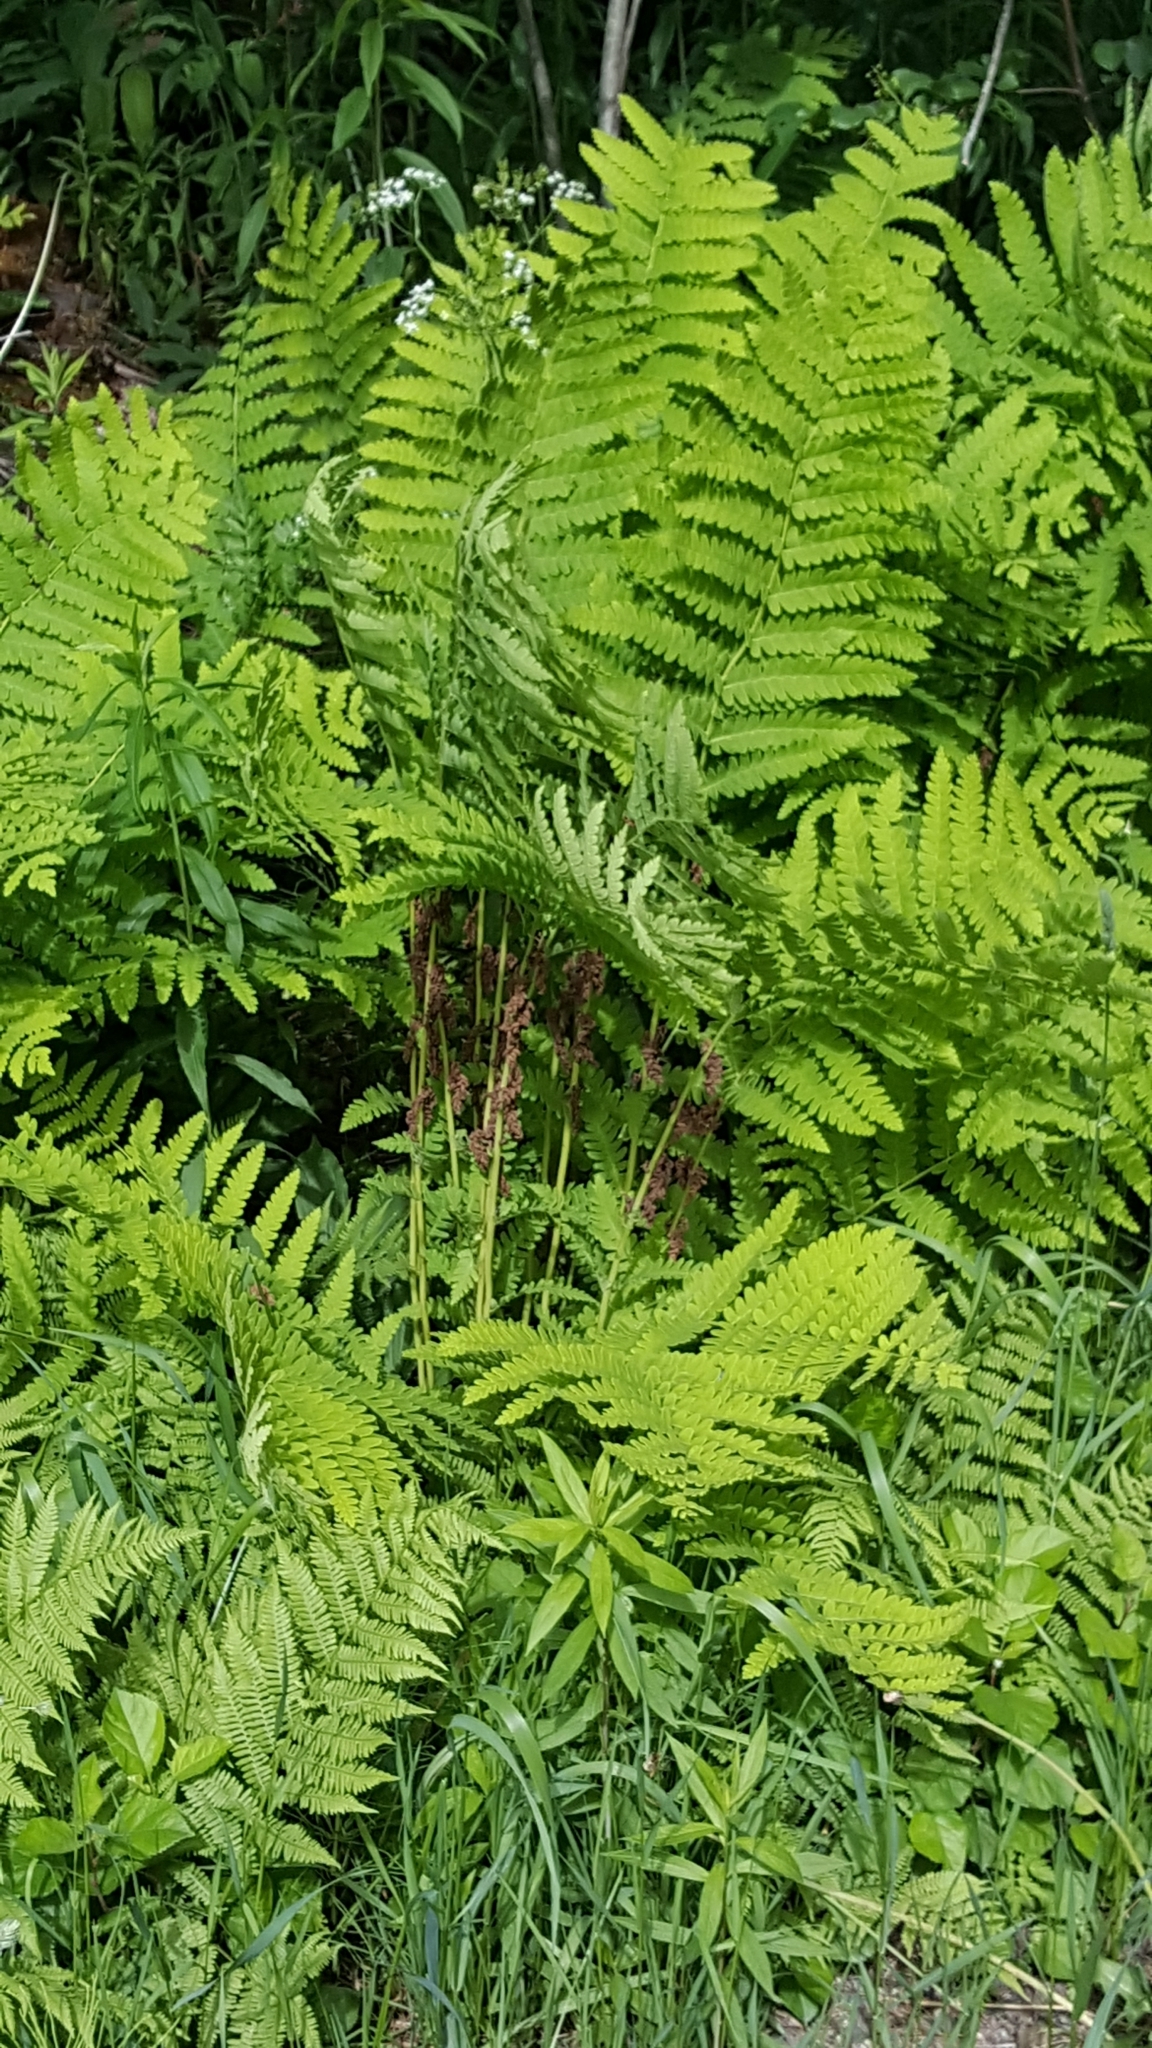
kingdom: Plantae
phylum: Tracheophyta
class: Polypodiopsida
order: Osmundales
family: Osmundaceae
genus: Claytosmunda
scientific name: Claytosmunda claytoniana
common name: Clayton's fern
